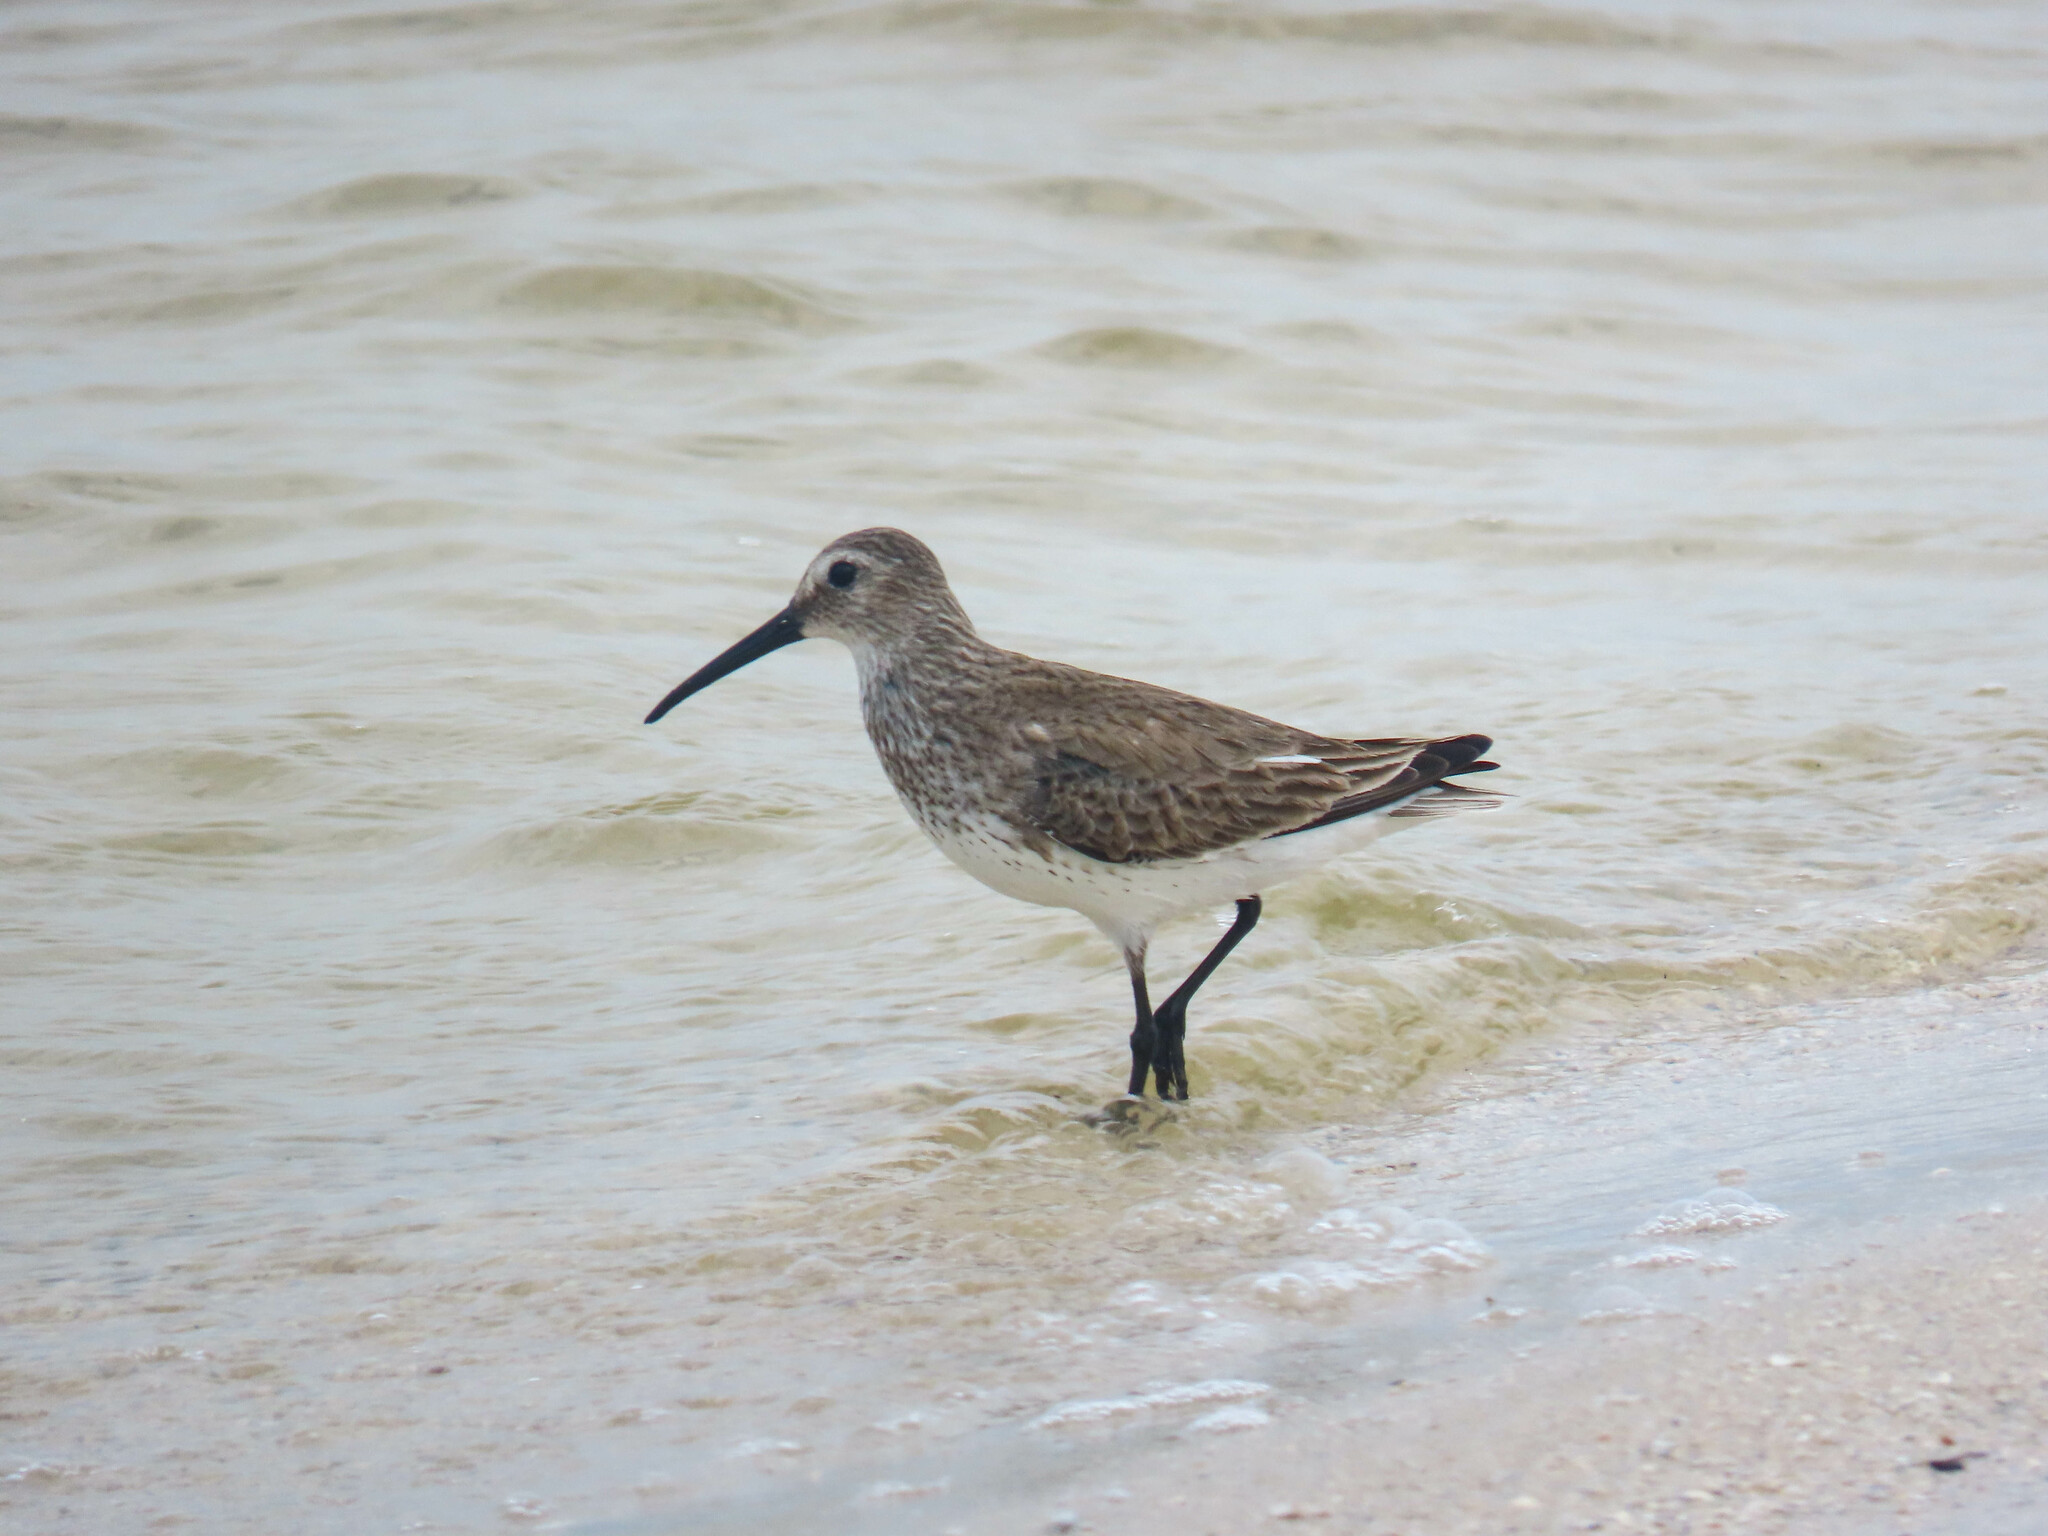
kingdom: Animalia
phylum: Chordata
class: Aves
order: Charadriiformes
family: Scolopacidae
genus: Calidris
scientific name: Calidris alpina
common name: Dunlin
